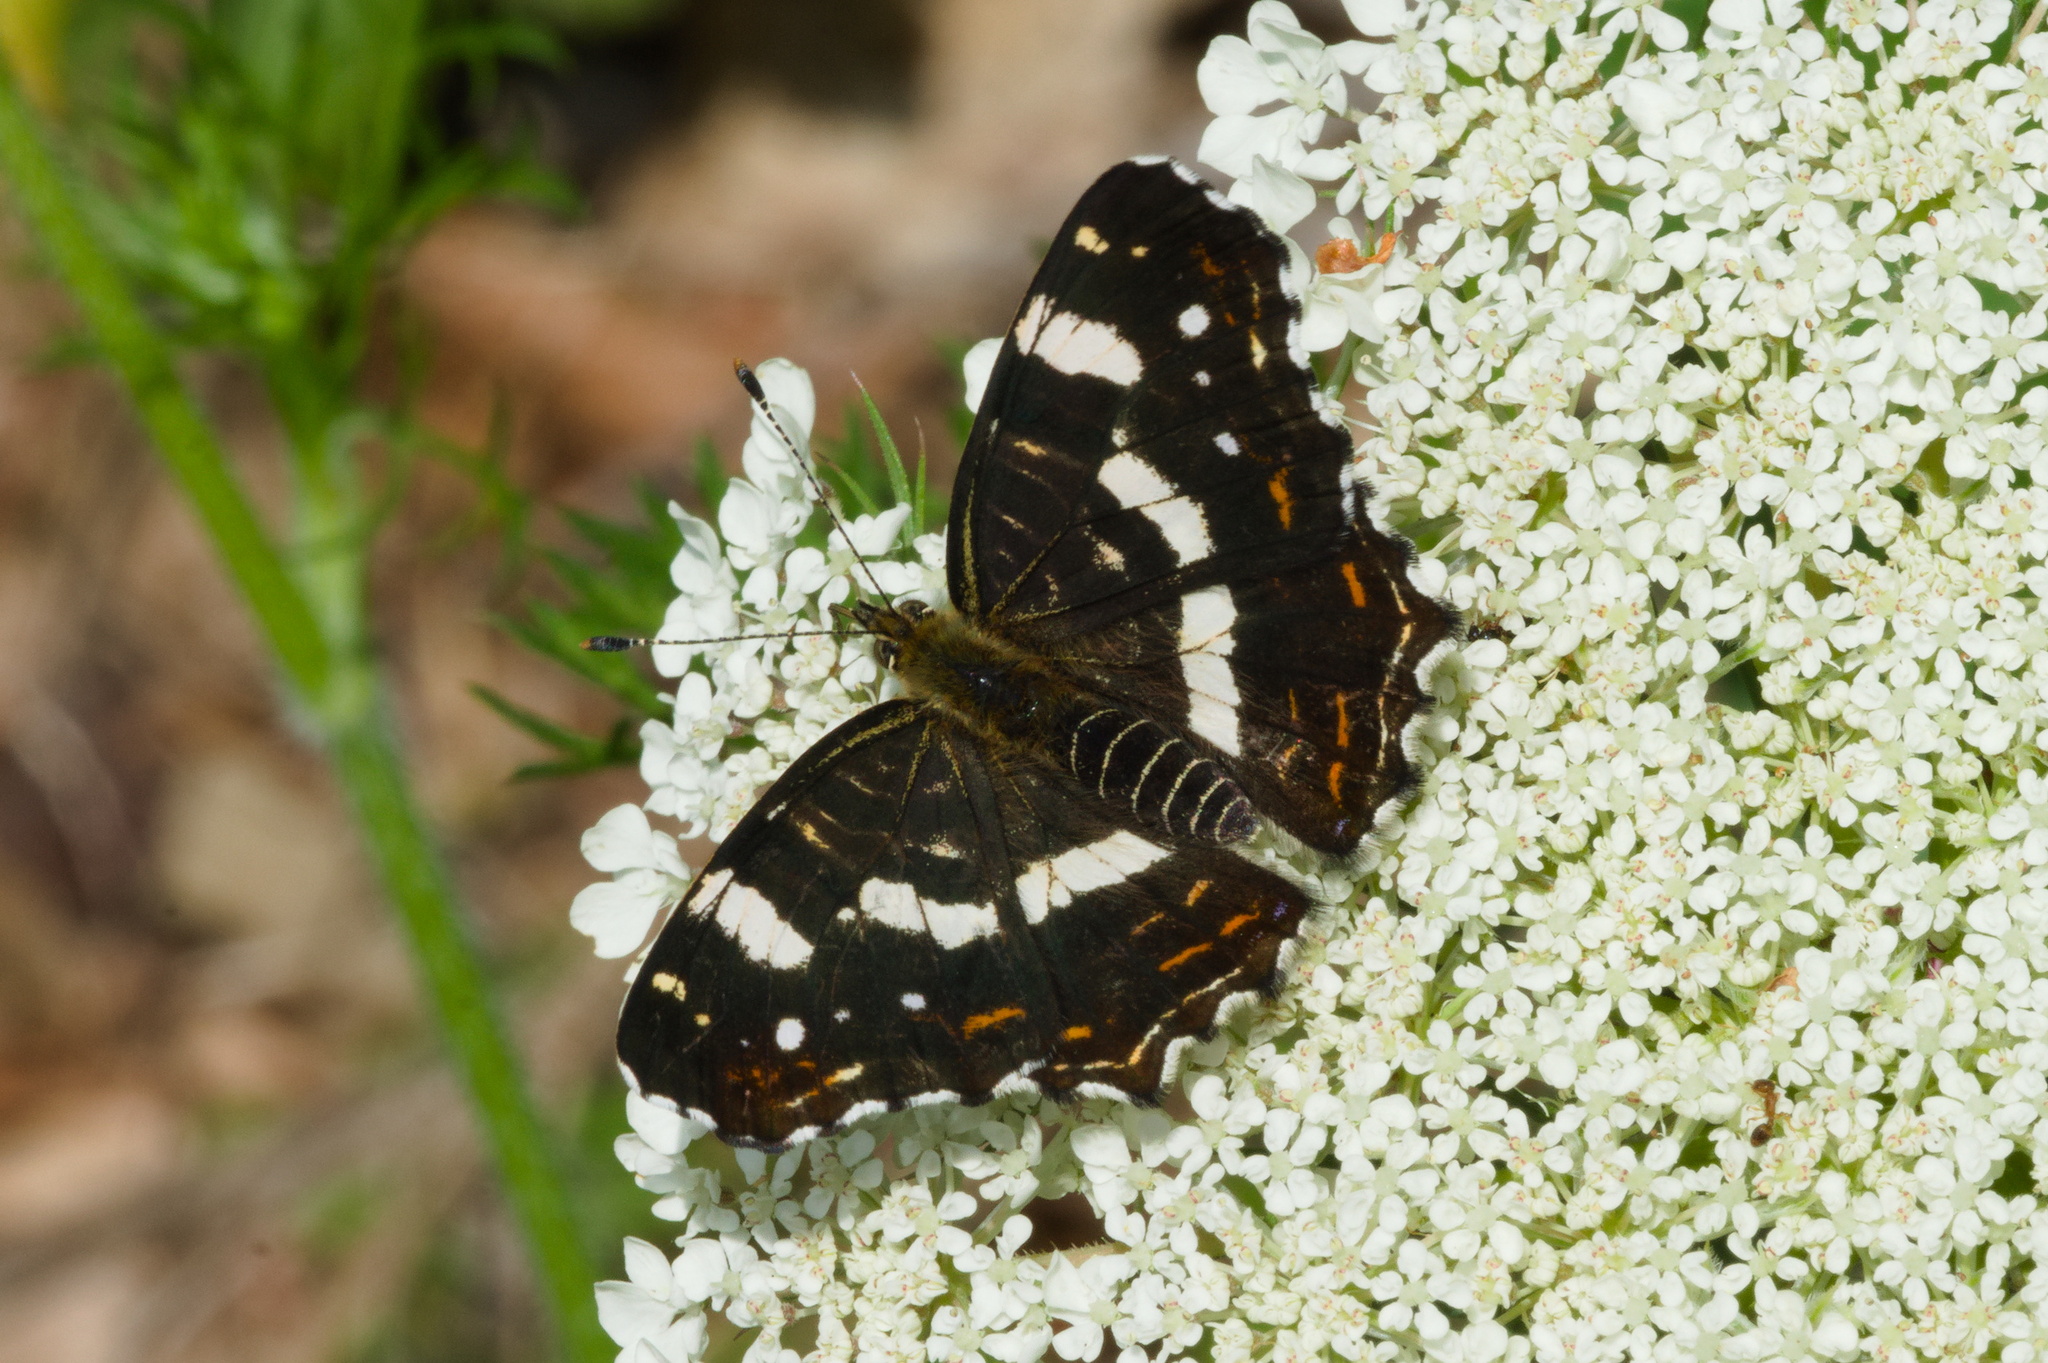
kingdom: Animalia
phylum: Arthropoda
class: Insecta
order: Lepidoptera
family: Nymphalidae
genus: Araschnia
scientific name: Araschnia levana
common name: Map butterfly
